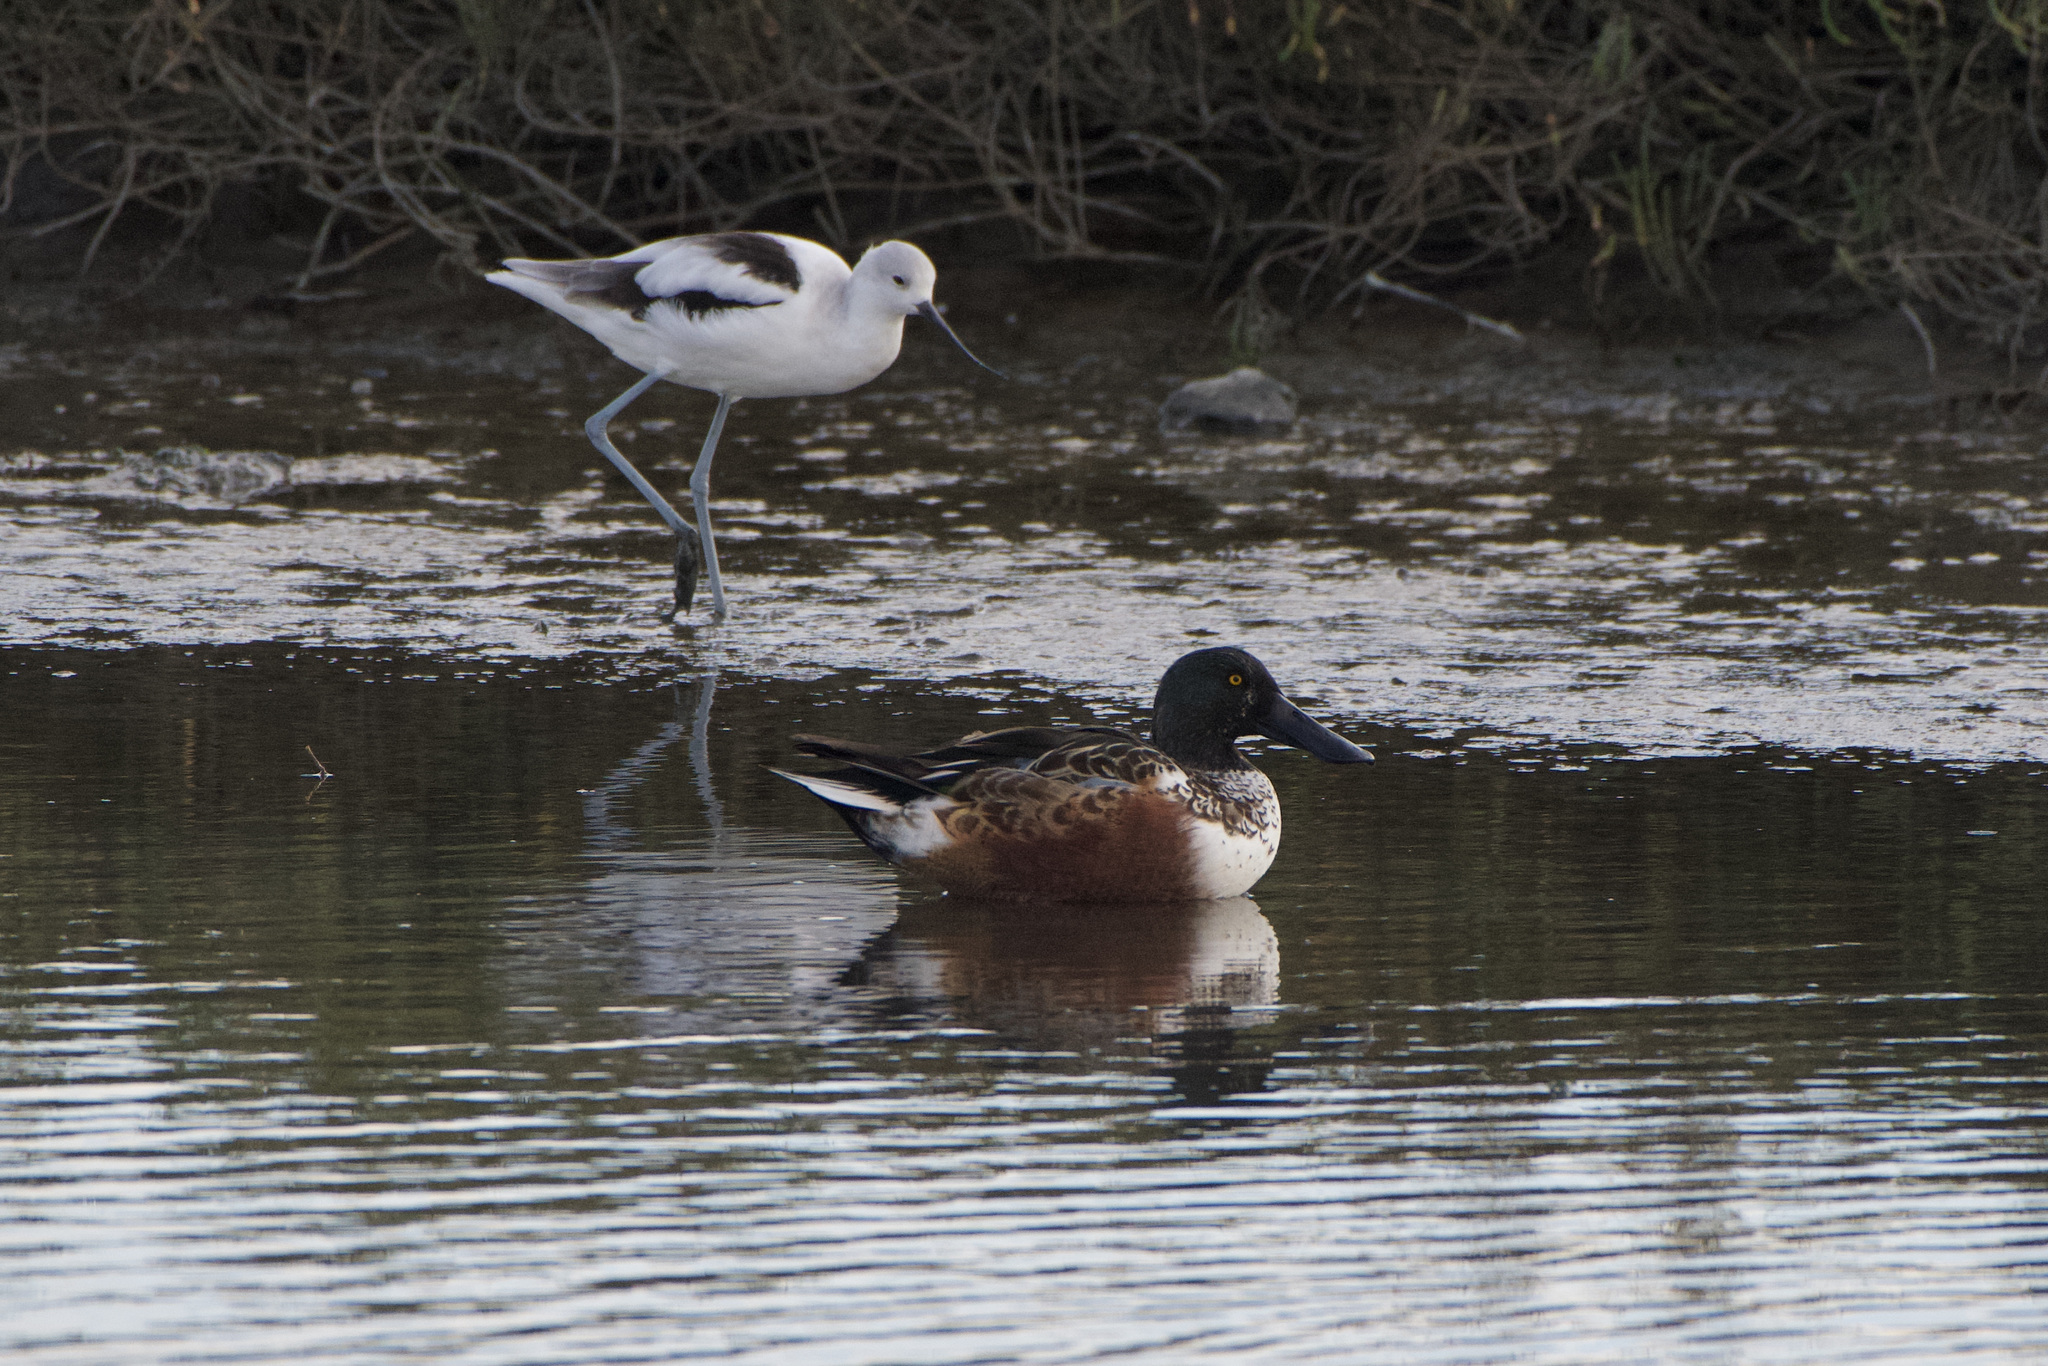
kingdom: Animalia
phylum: Chordata
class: Aves
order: Anseriformes
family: Anatidae
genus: Spatula
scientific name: Spatula clypeata
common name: Northern shoveler
